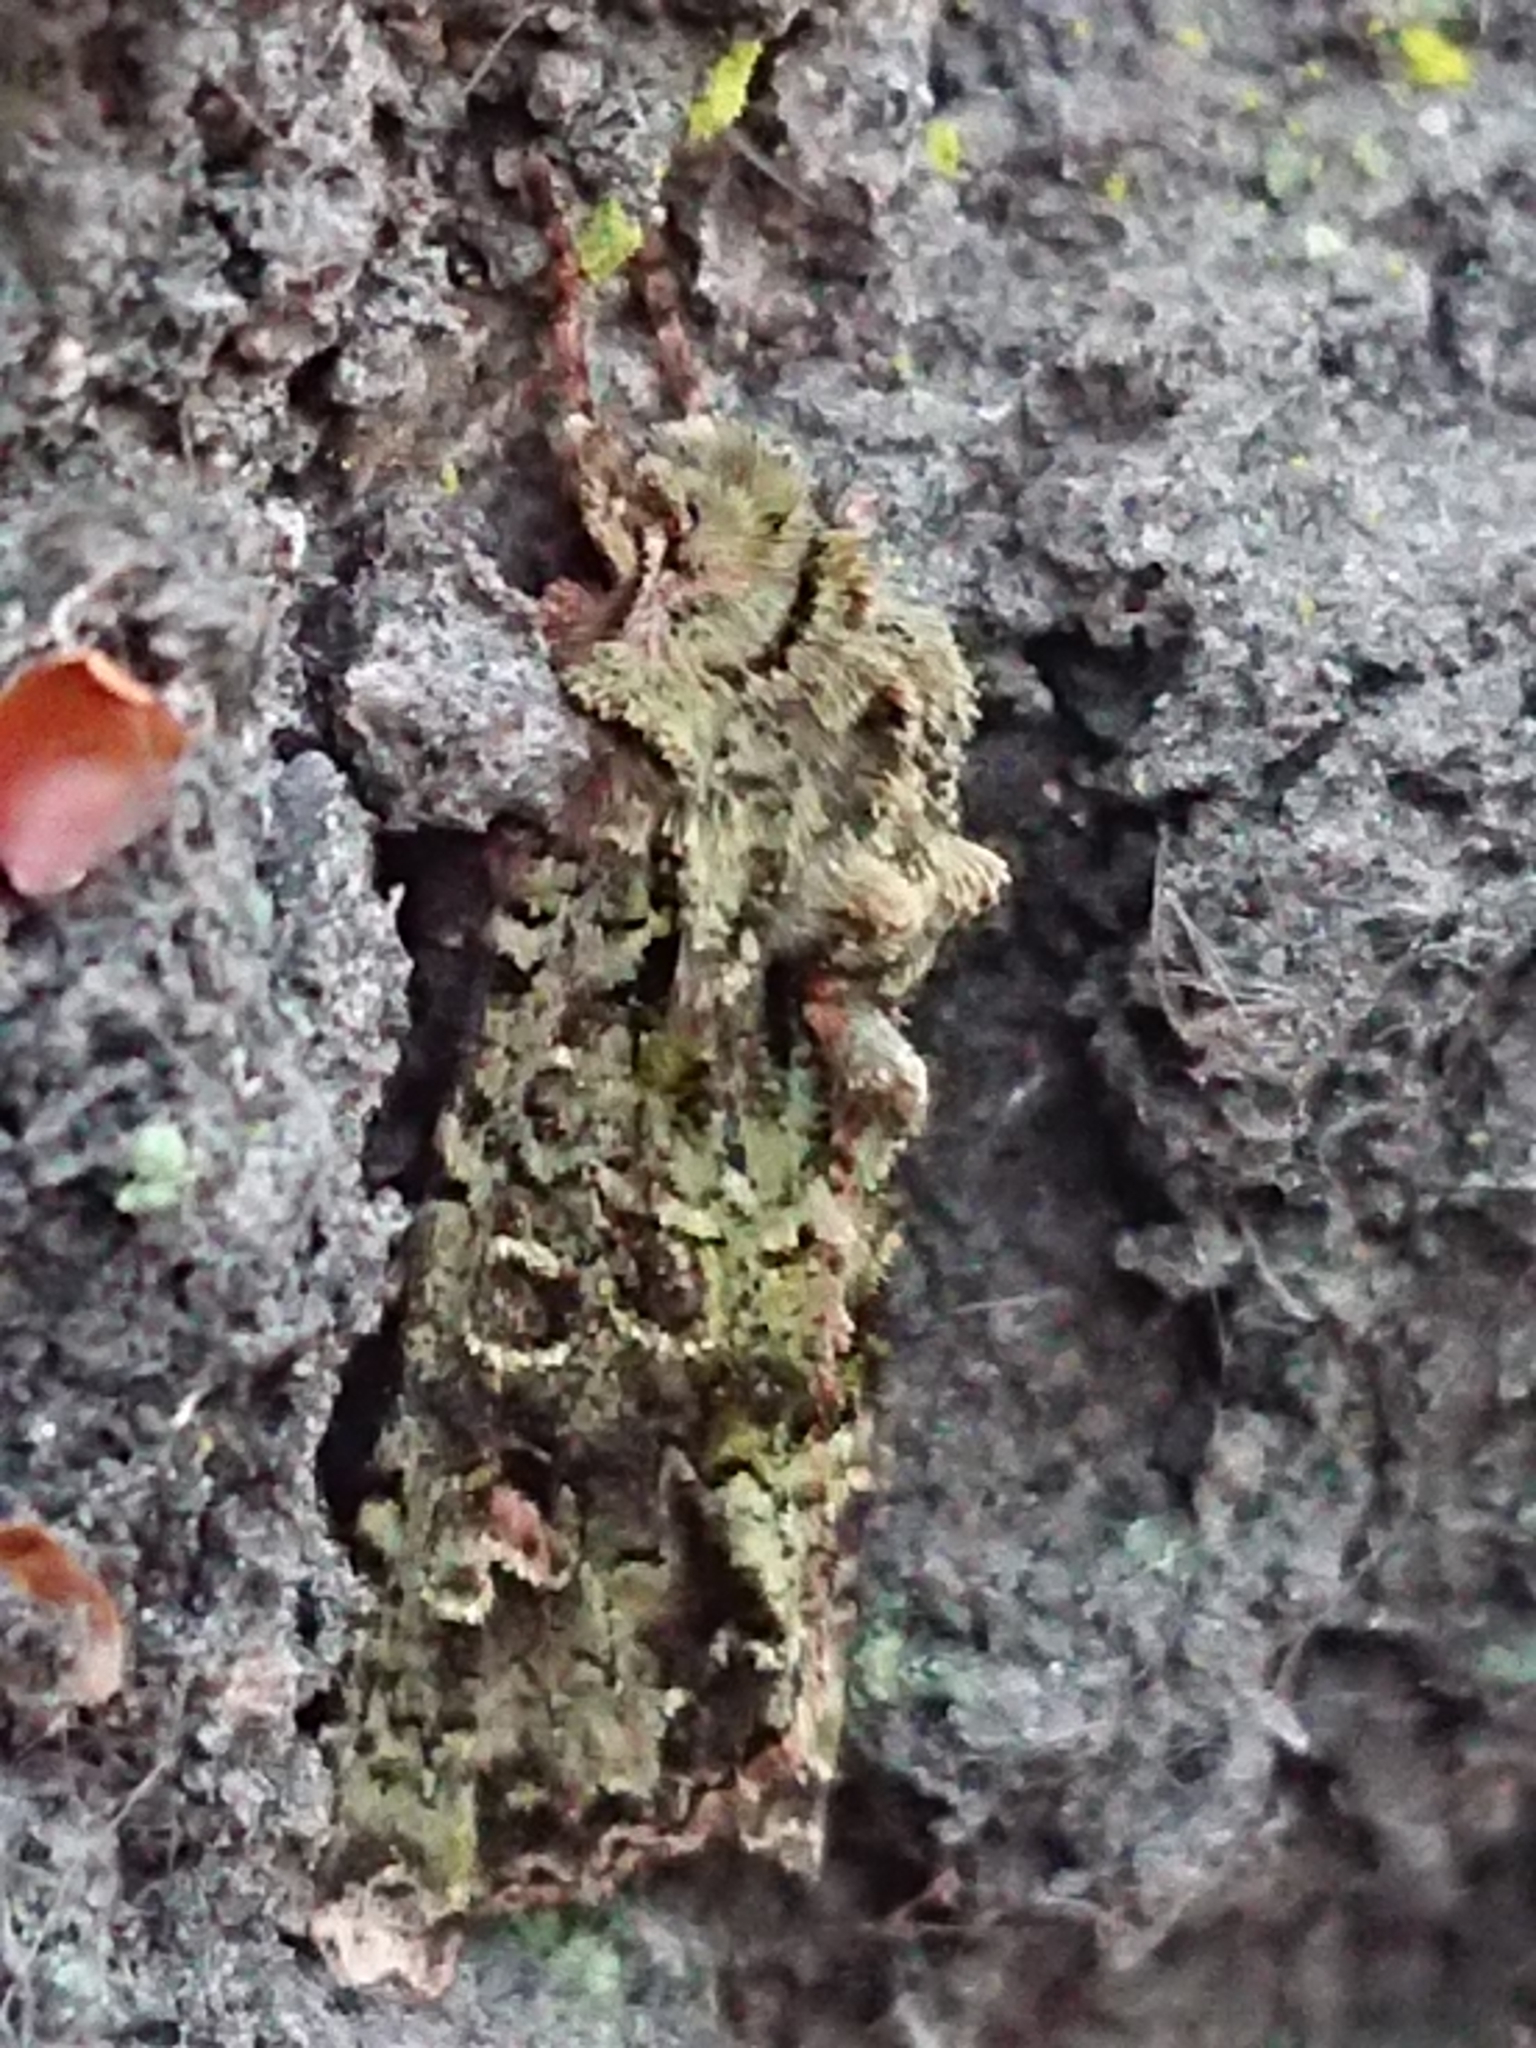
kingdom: Animalia
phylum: Arthropoda
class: Insecta
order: Lepidoptera
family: Noctuidae
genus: Ichneutica
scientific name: Ichneutica
